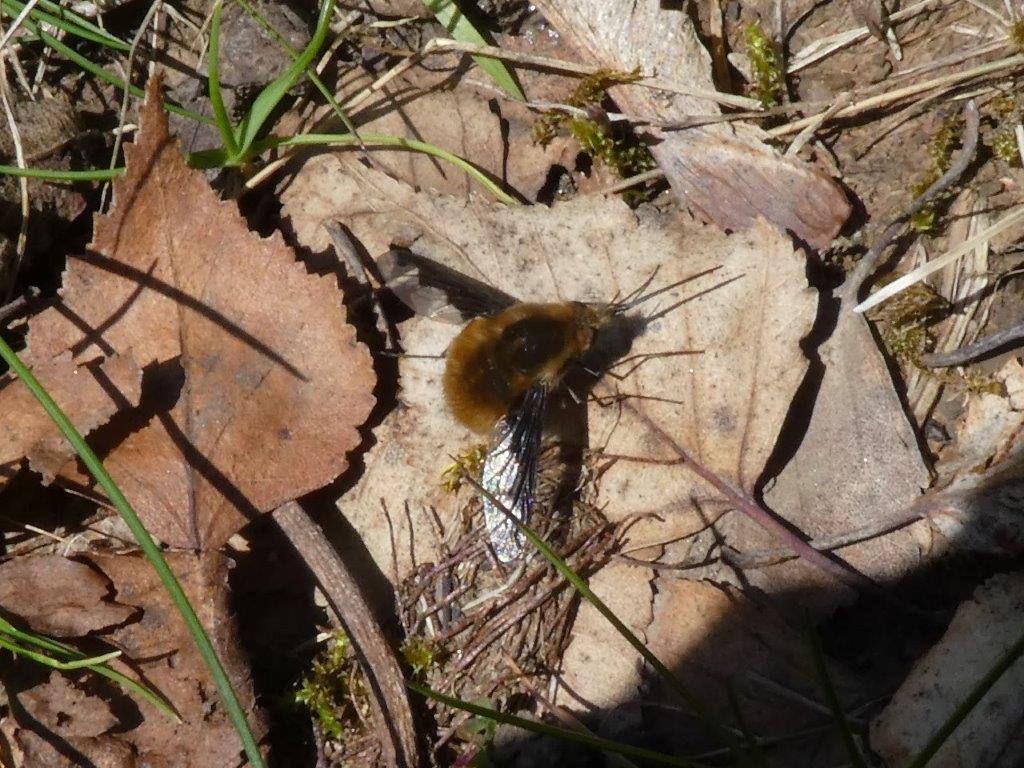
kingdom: Animalia
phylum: Arthropoda
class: Insecta
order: Diptera
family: Bombyliidae
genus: Bombylius
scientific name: Bombylius major
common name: Bee fly
